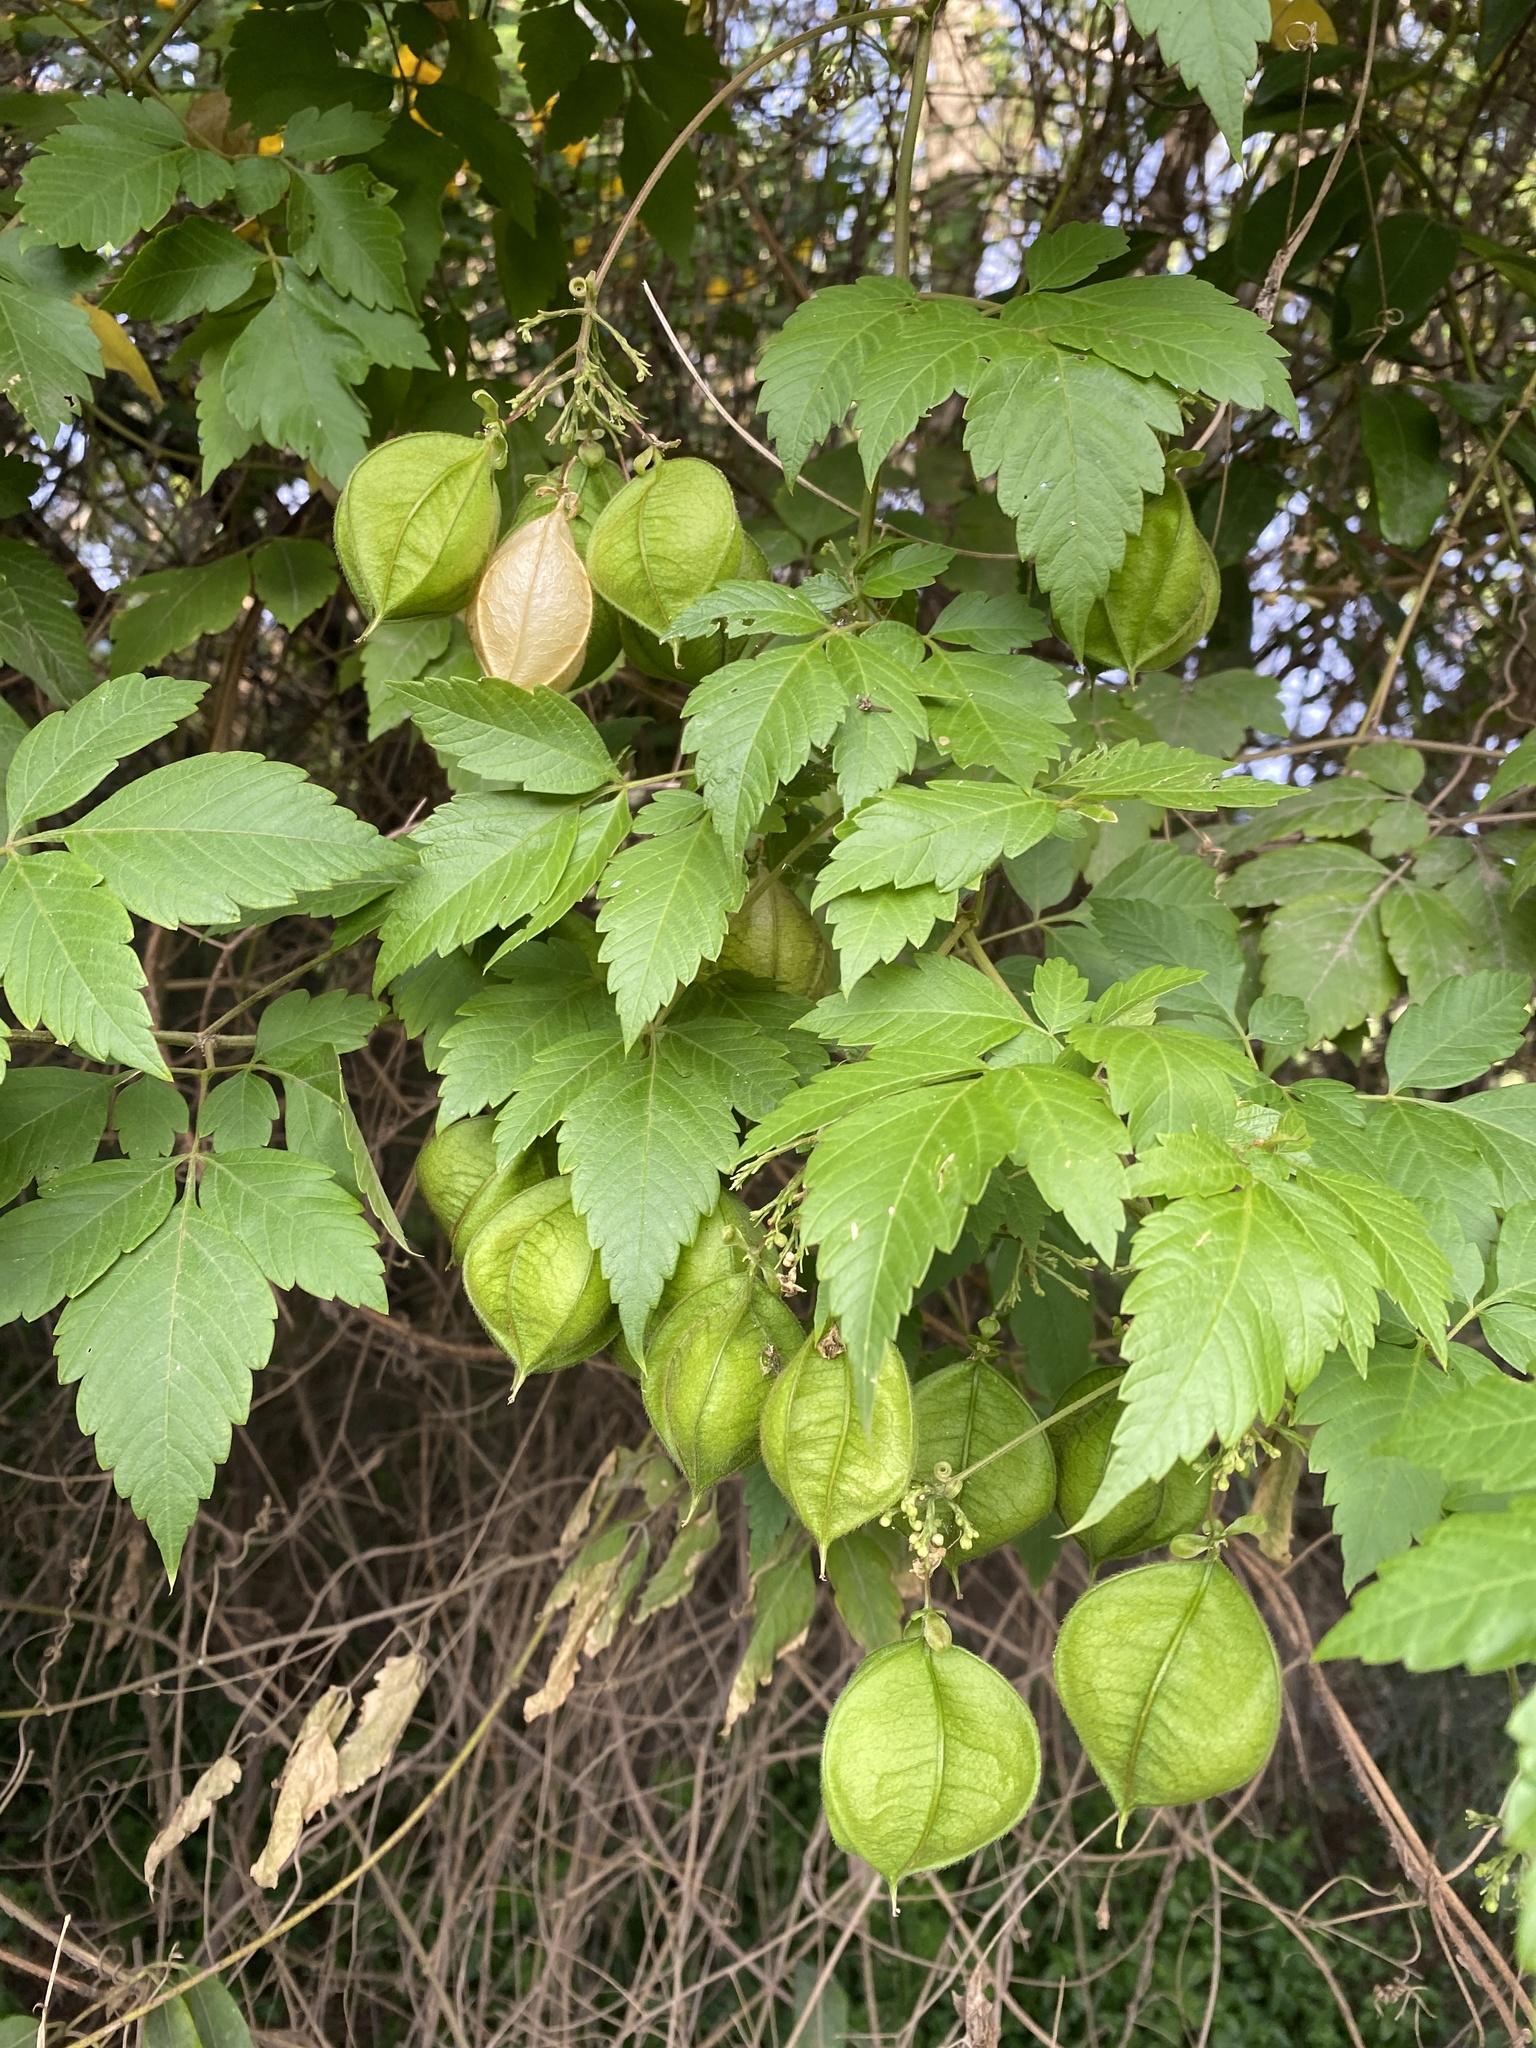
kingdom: Plantae
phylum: Tracheophyta
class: Magnoliopsida
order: Sapindales
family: Sapindaceae
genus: Cardiospermum
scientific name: Cardiospermum grandiflorum
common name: Balloon vine
